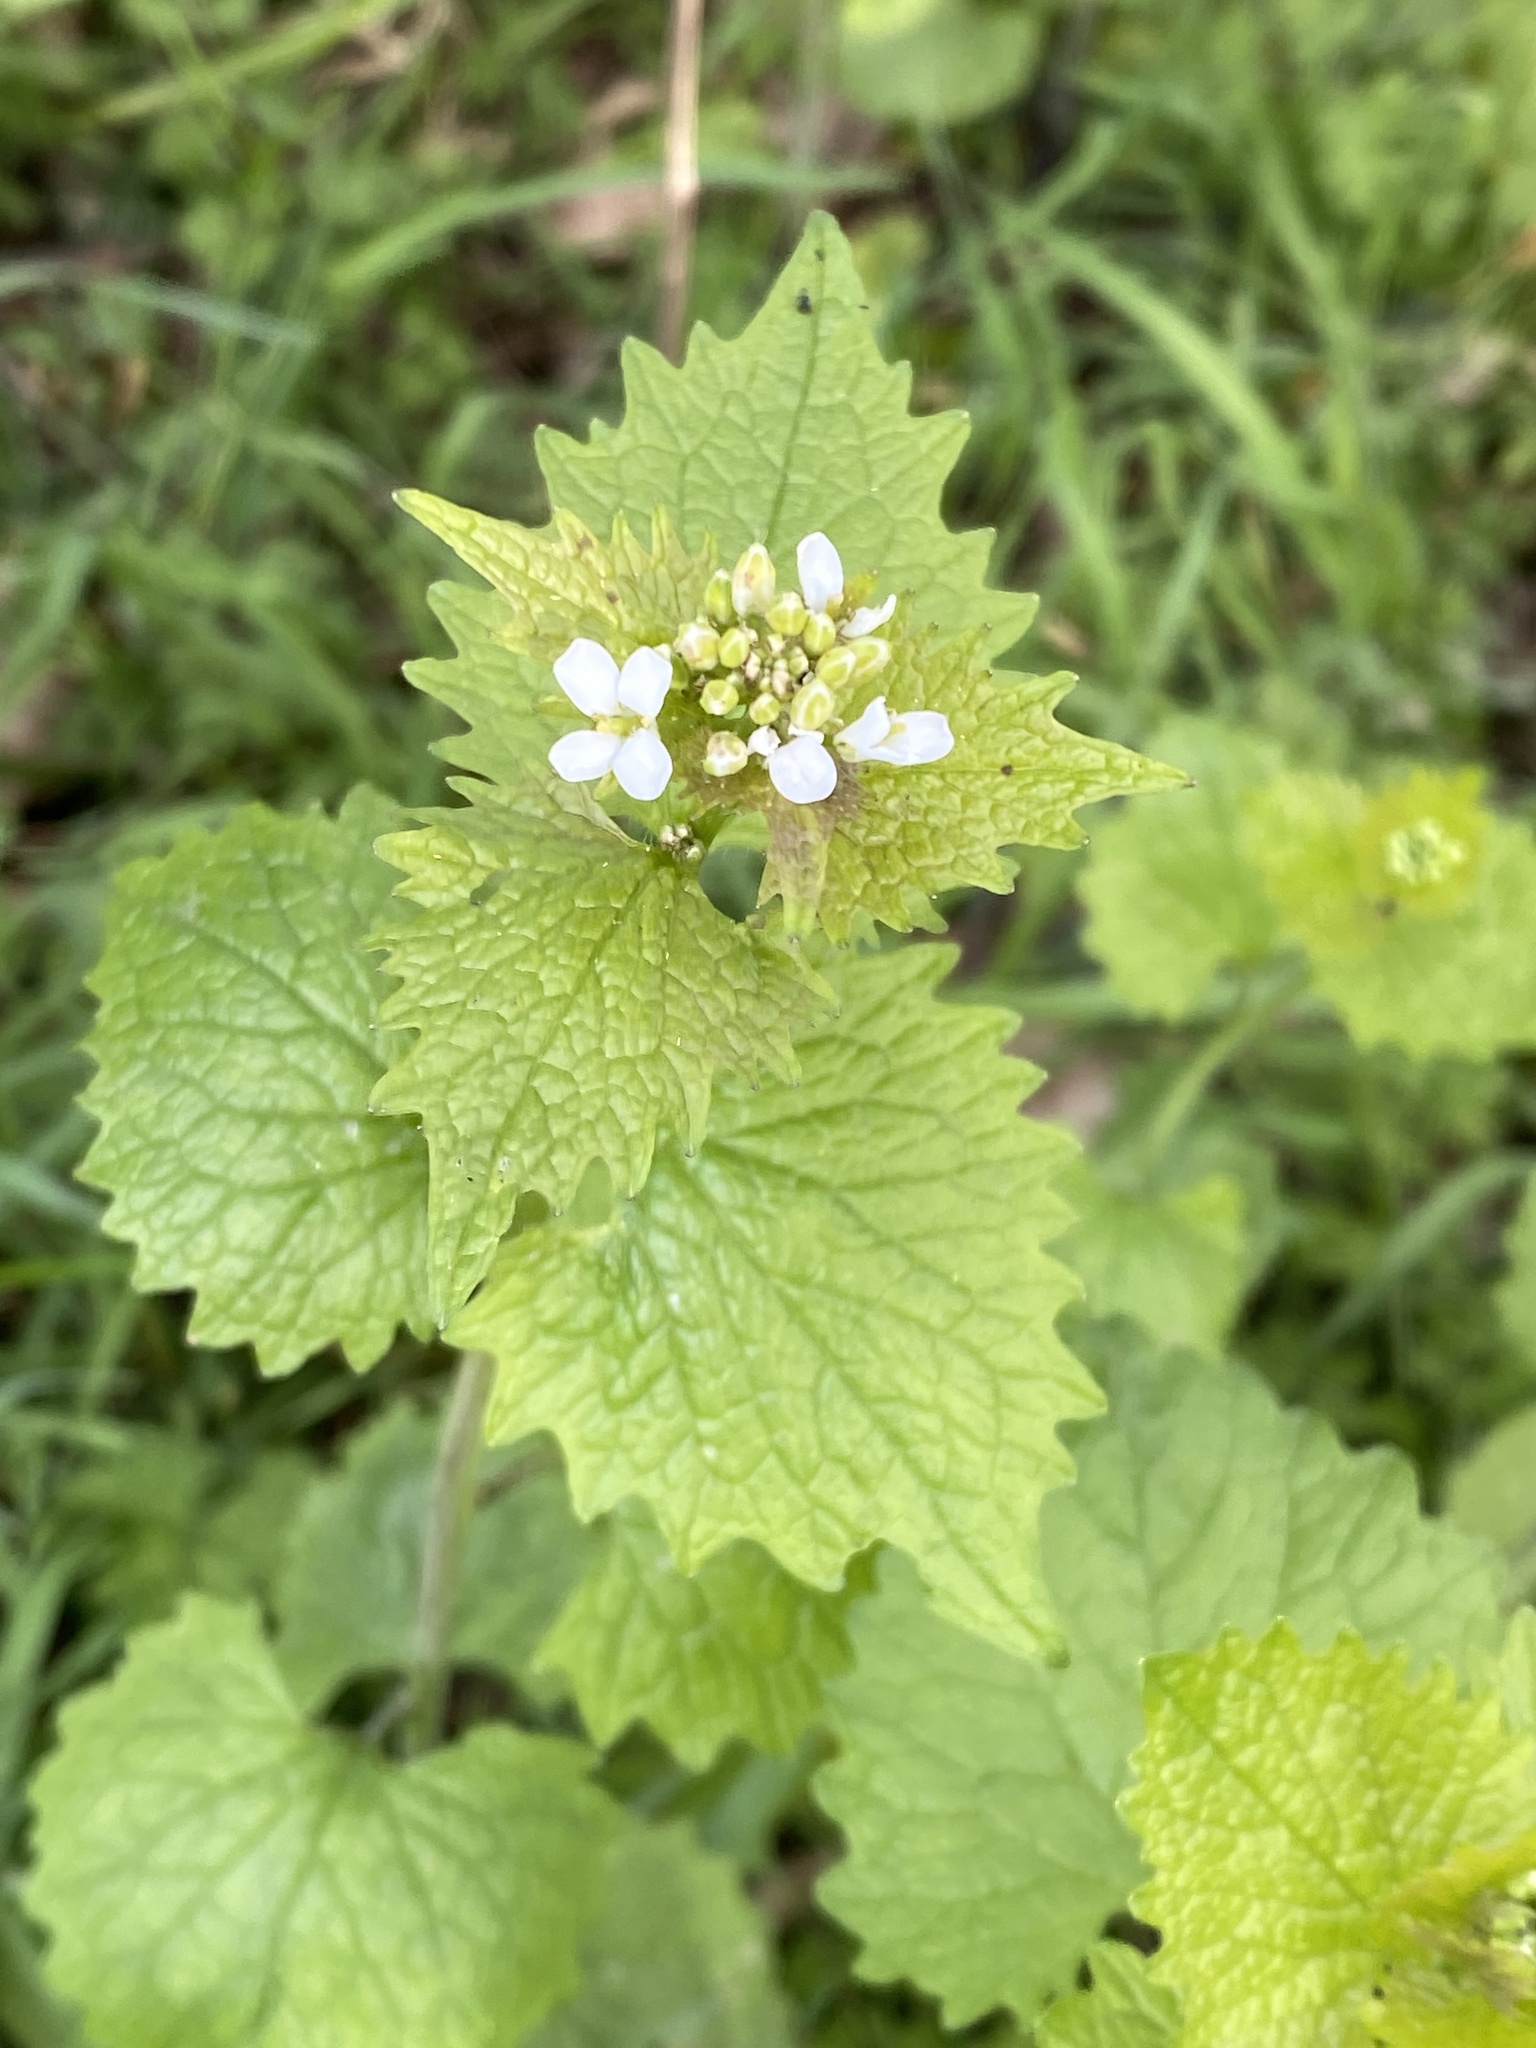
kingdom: Plantae
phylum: Tracheophyta
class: Magnoliopsida
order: Brassicales
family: Brassicaceae
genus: Alliaria
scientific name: Alliaria petiolata
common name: Garlic mustard
